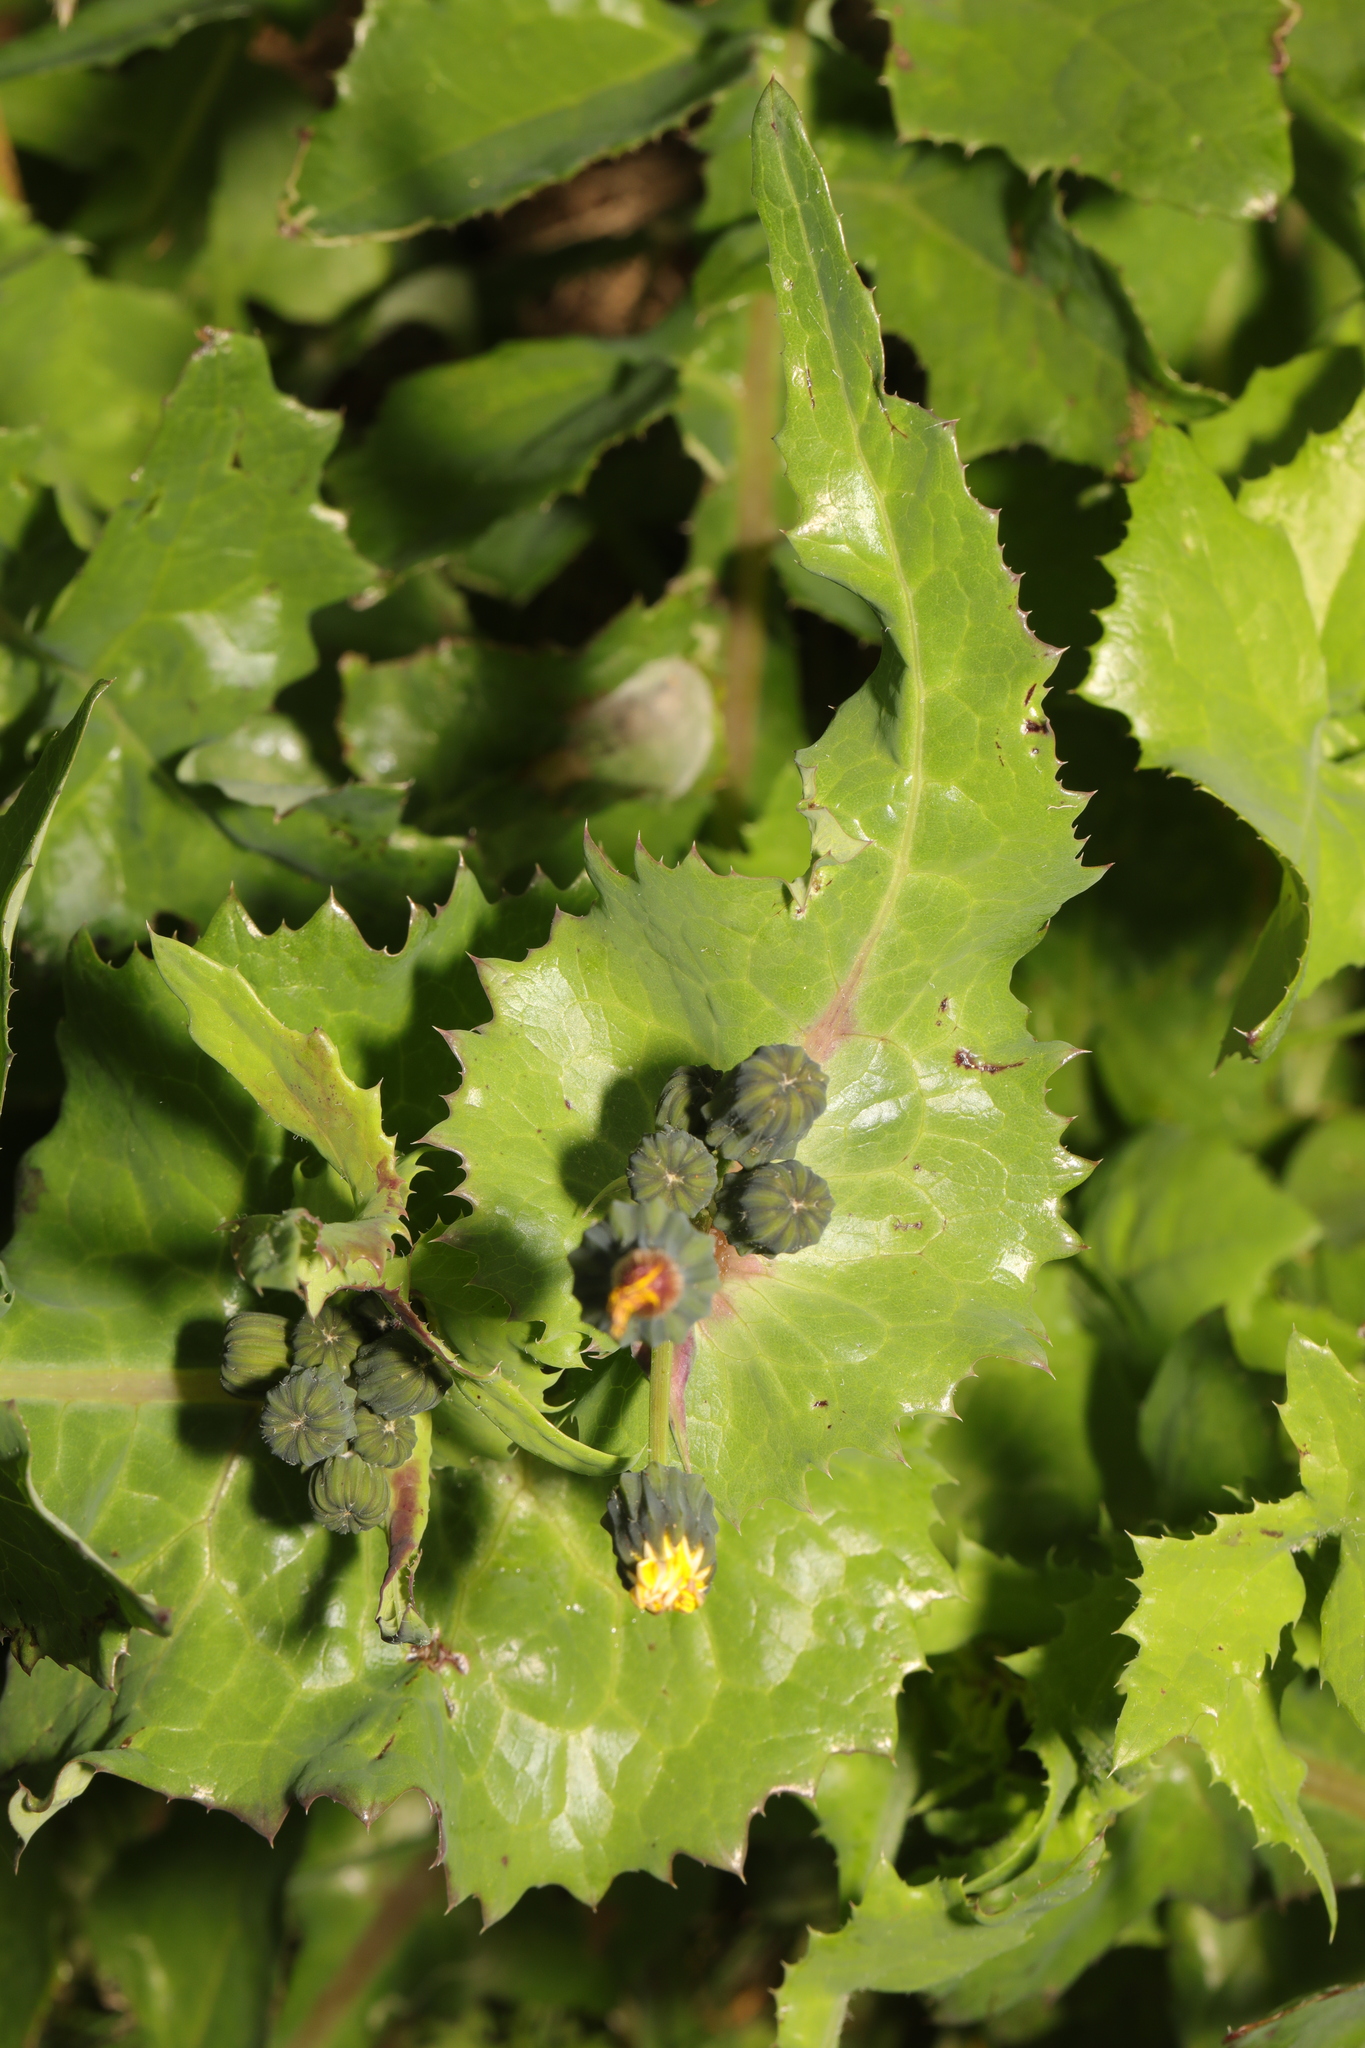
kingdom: Plantae
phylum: Tracheophyta
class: Magnoliopsida
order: Asterales
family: Asteraceae
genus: Sonchus
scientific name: Sonchus oleraceus
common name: Common sowthistle
